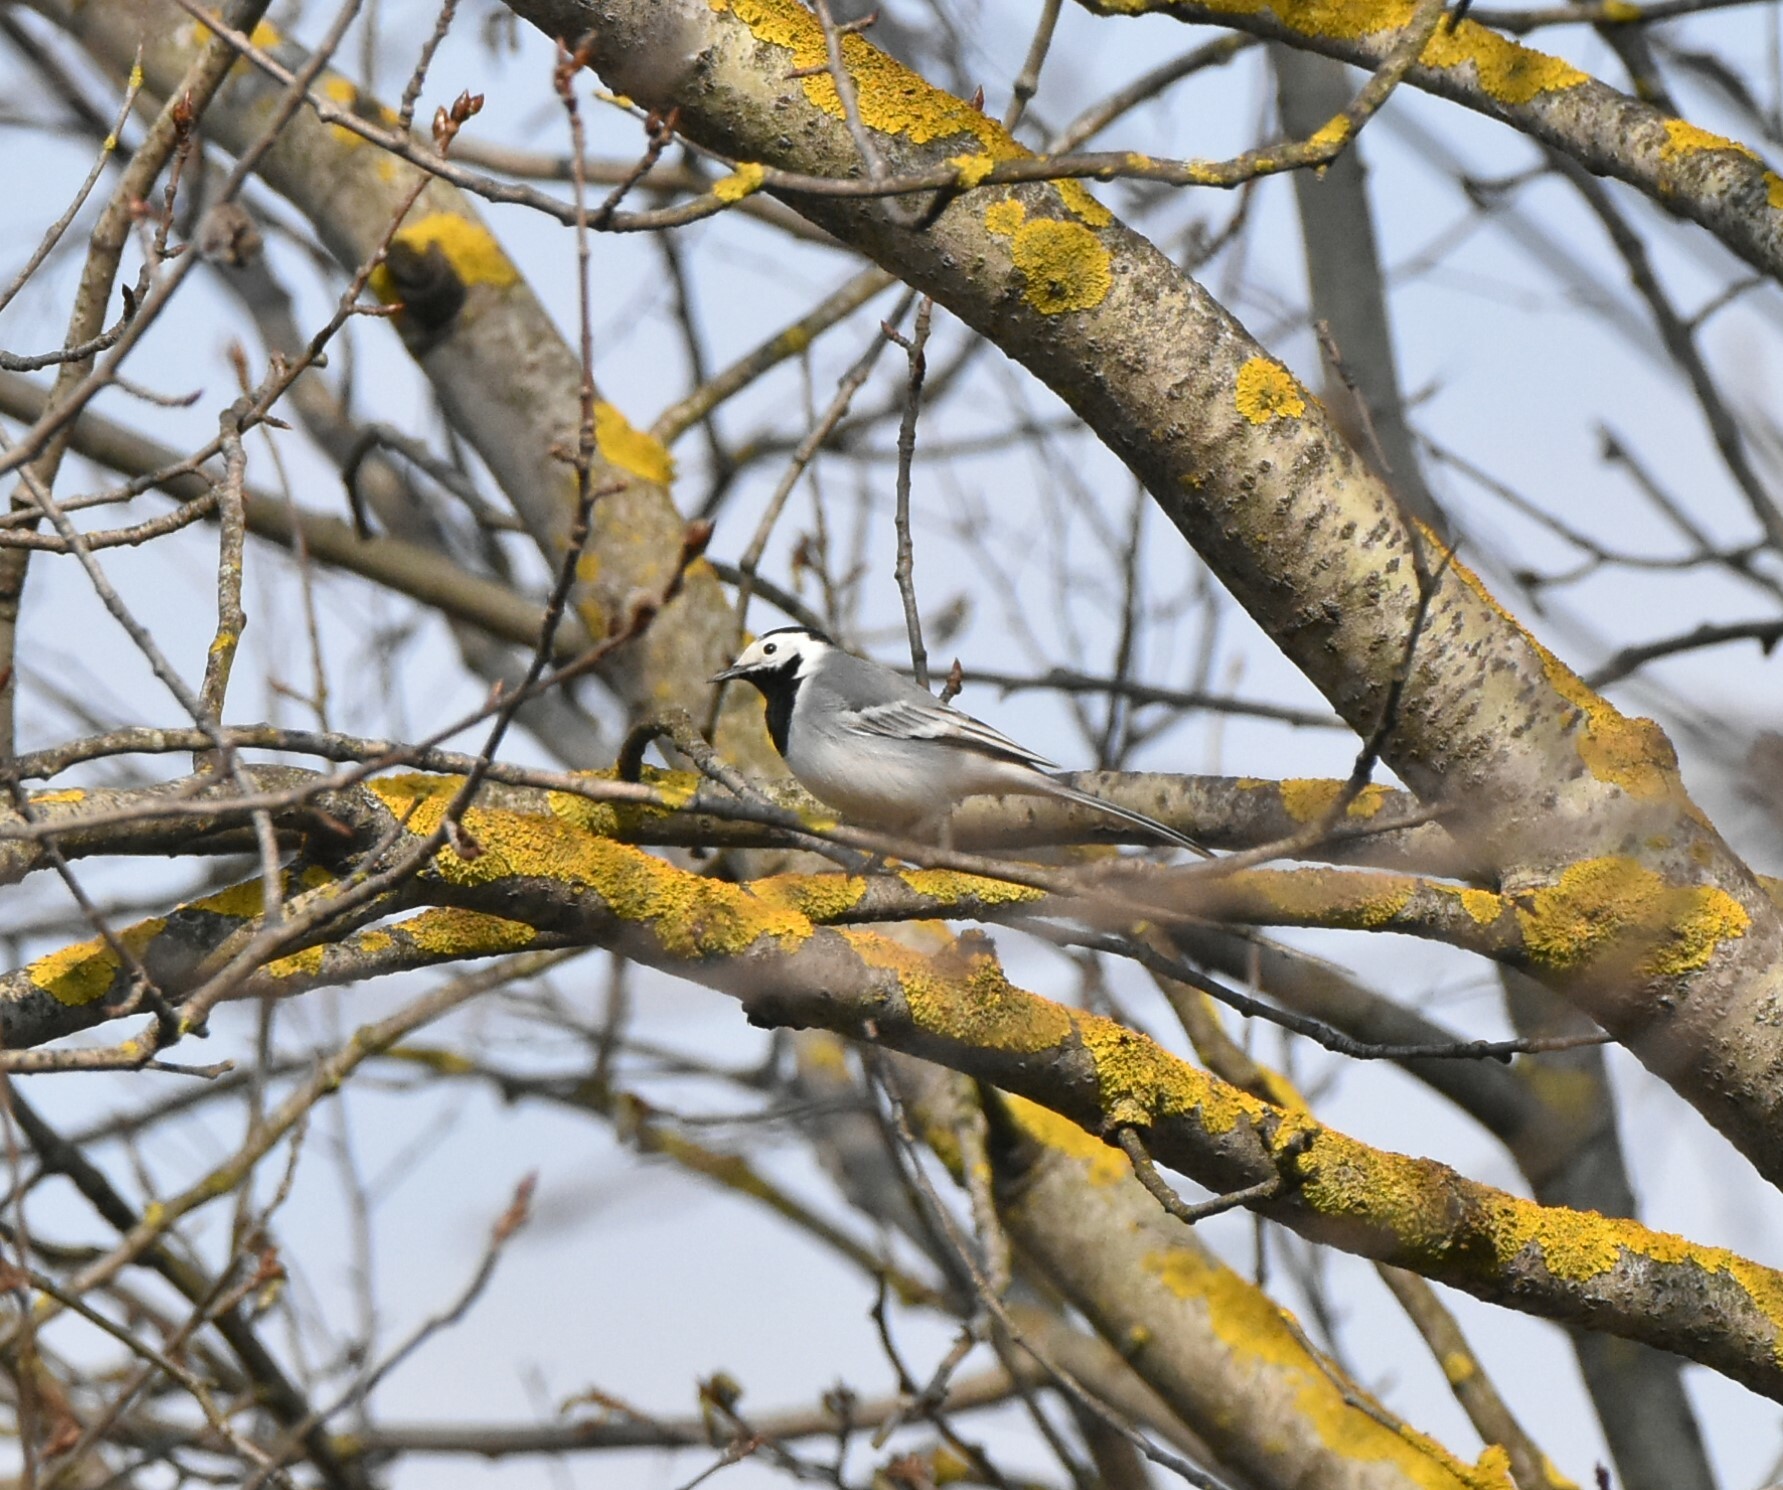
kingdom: Animalia
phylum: Chordata
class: Aves
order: Passeriformes
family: Motacillidae
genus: Motacilla
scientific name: Motacilla alba
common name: White wagtail
